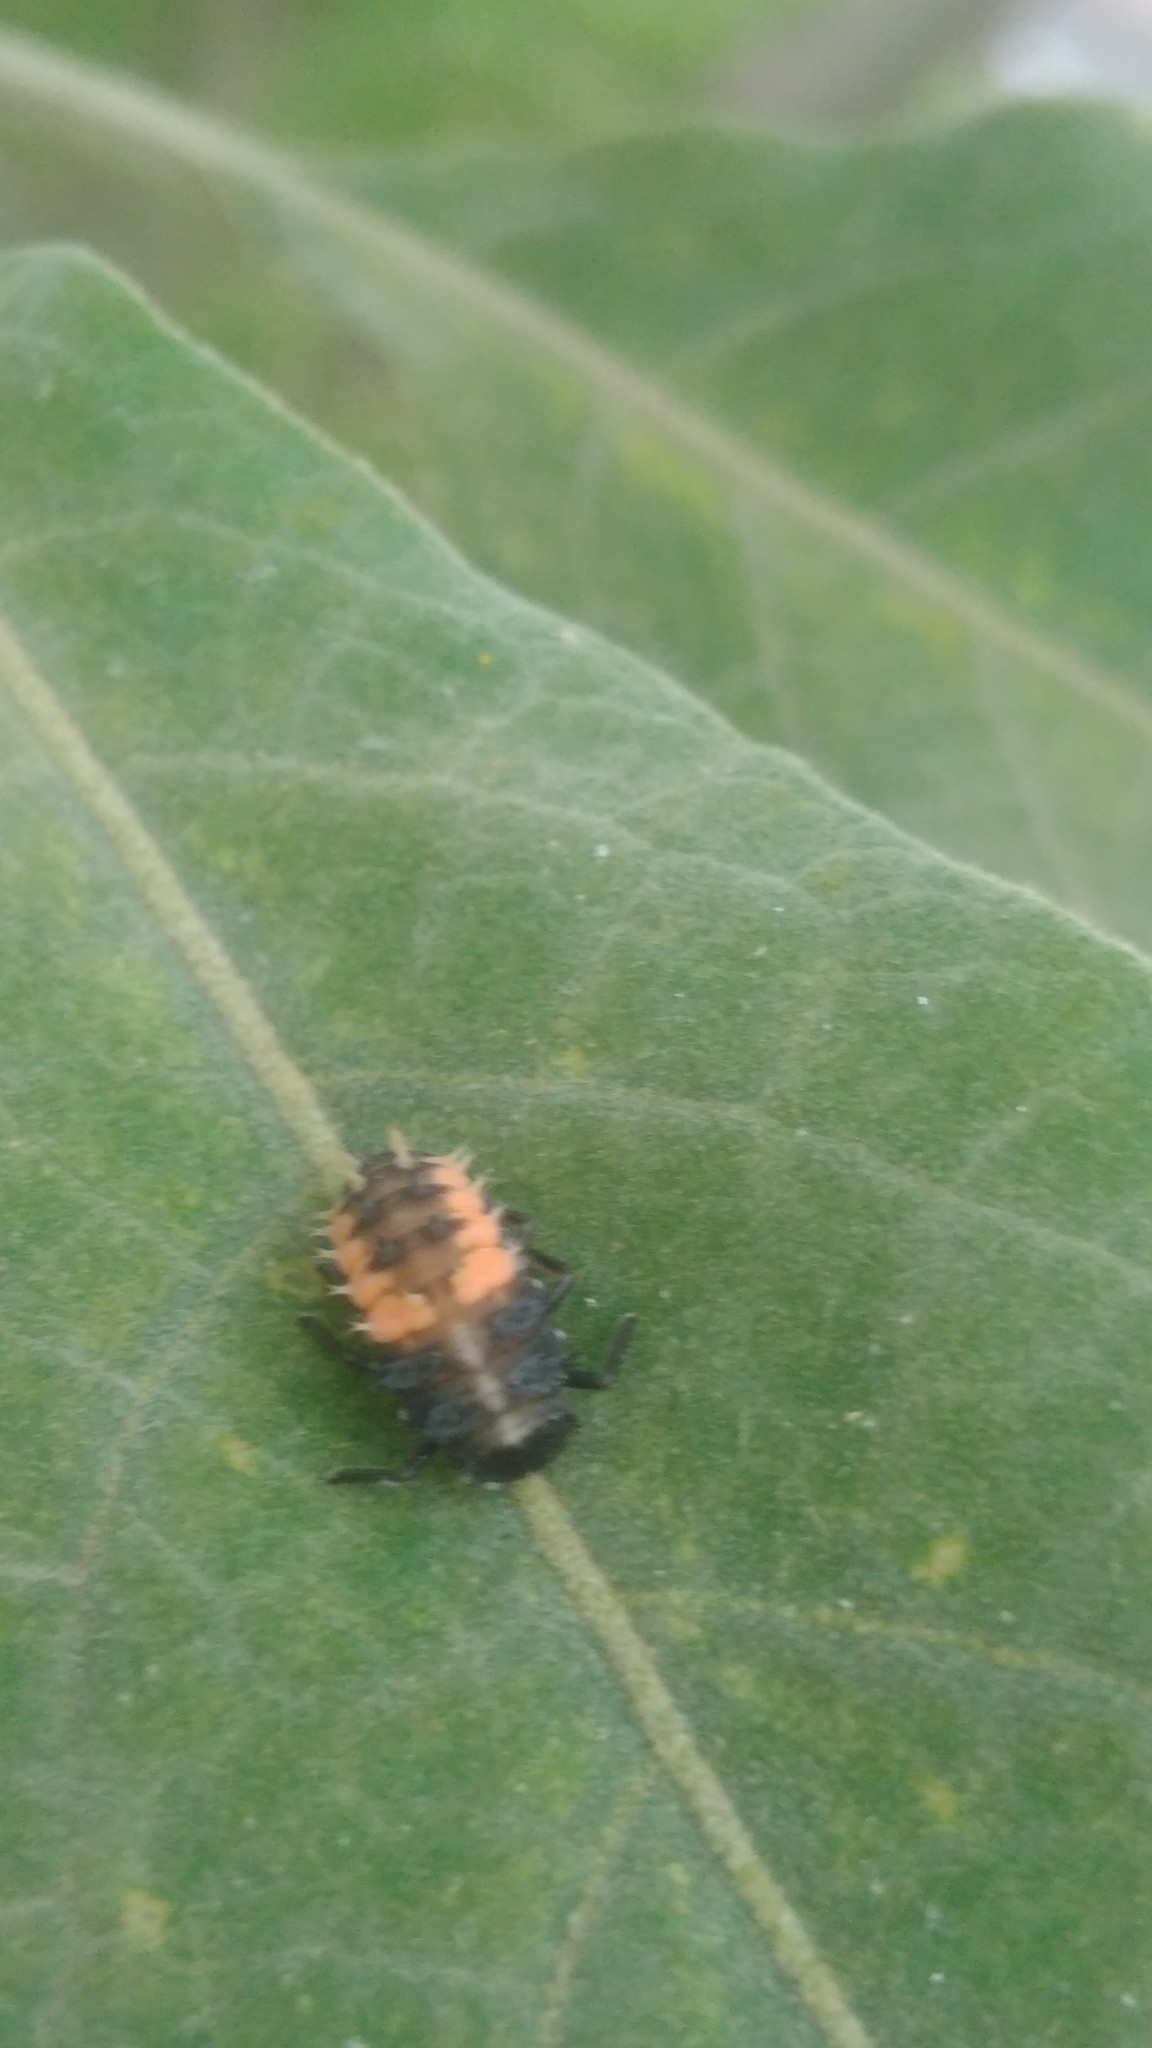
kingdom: Animalia
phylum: Arthropoda
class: Insecta
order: Coleoptera
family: Coccinellidae
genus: Harmonia
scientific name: Harmonia axyridis
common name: Harlequin ladybird
